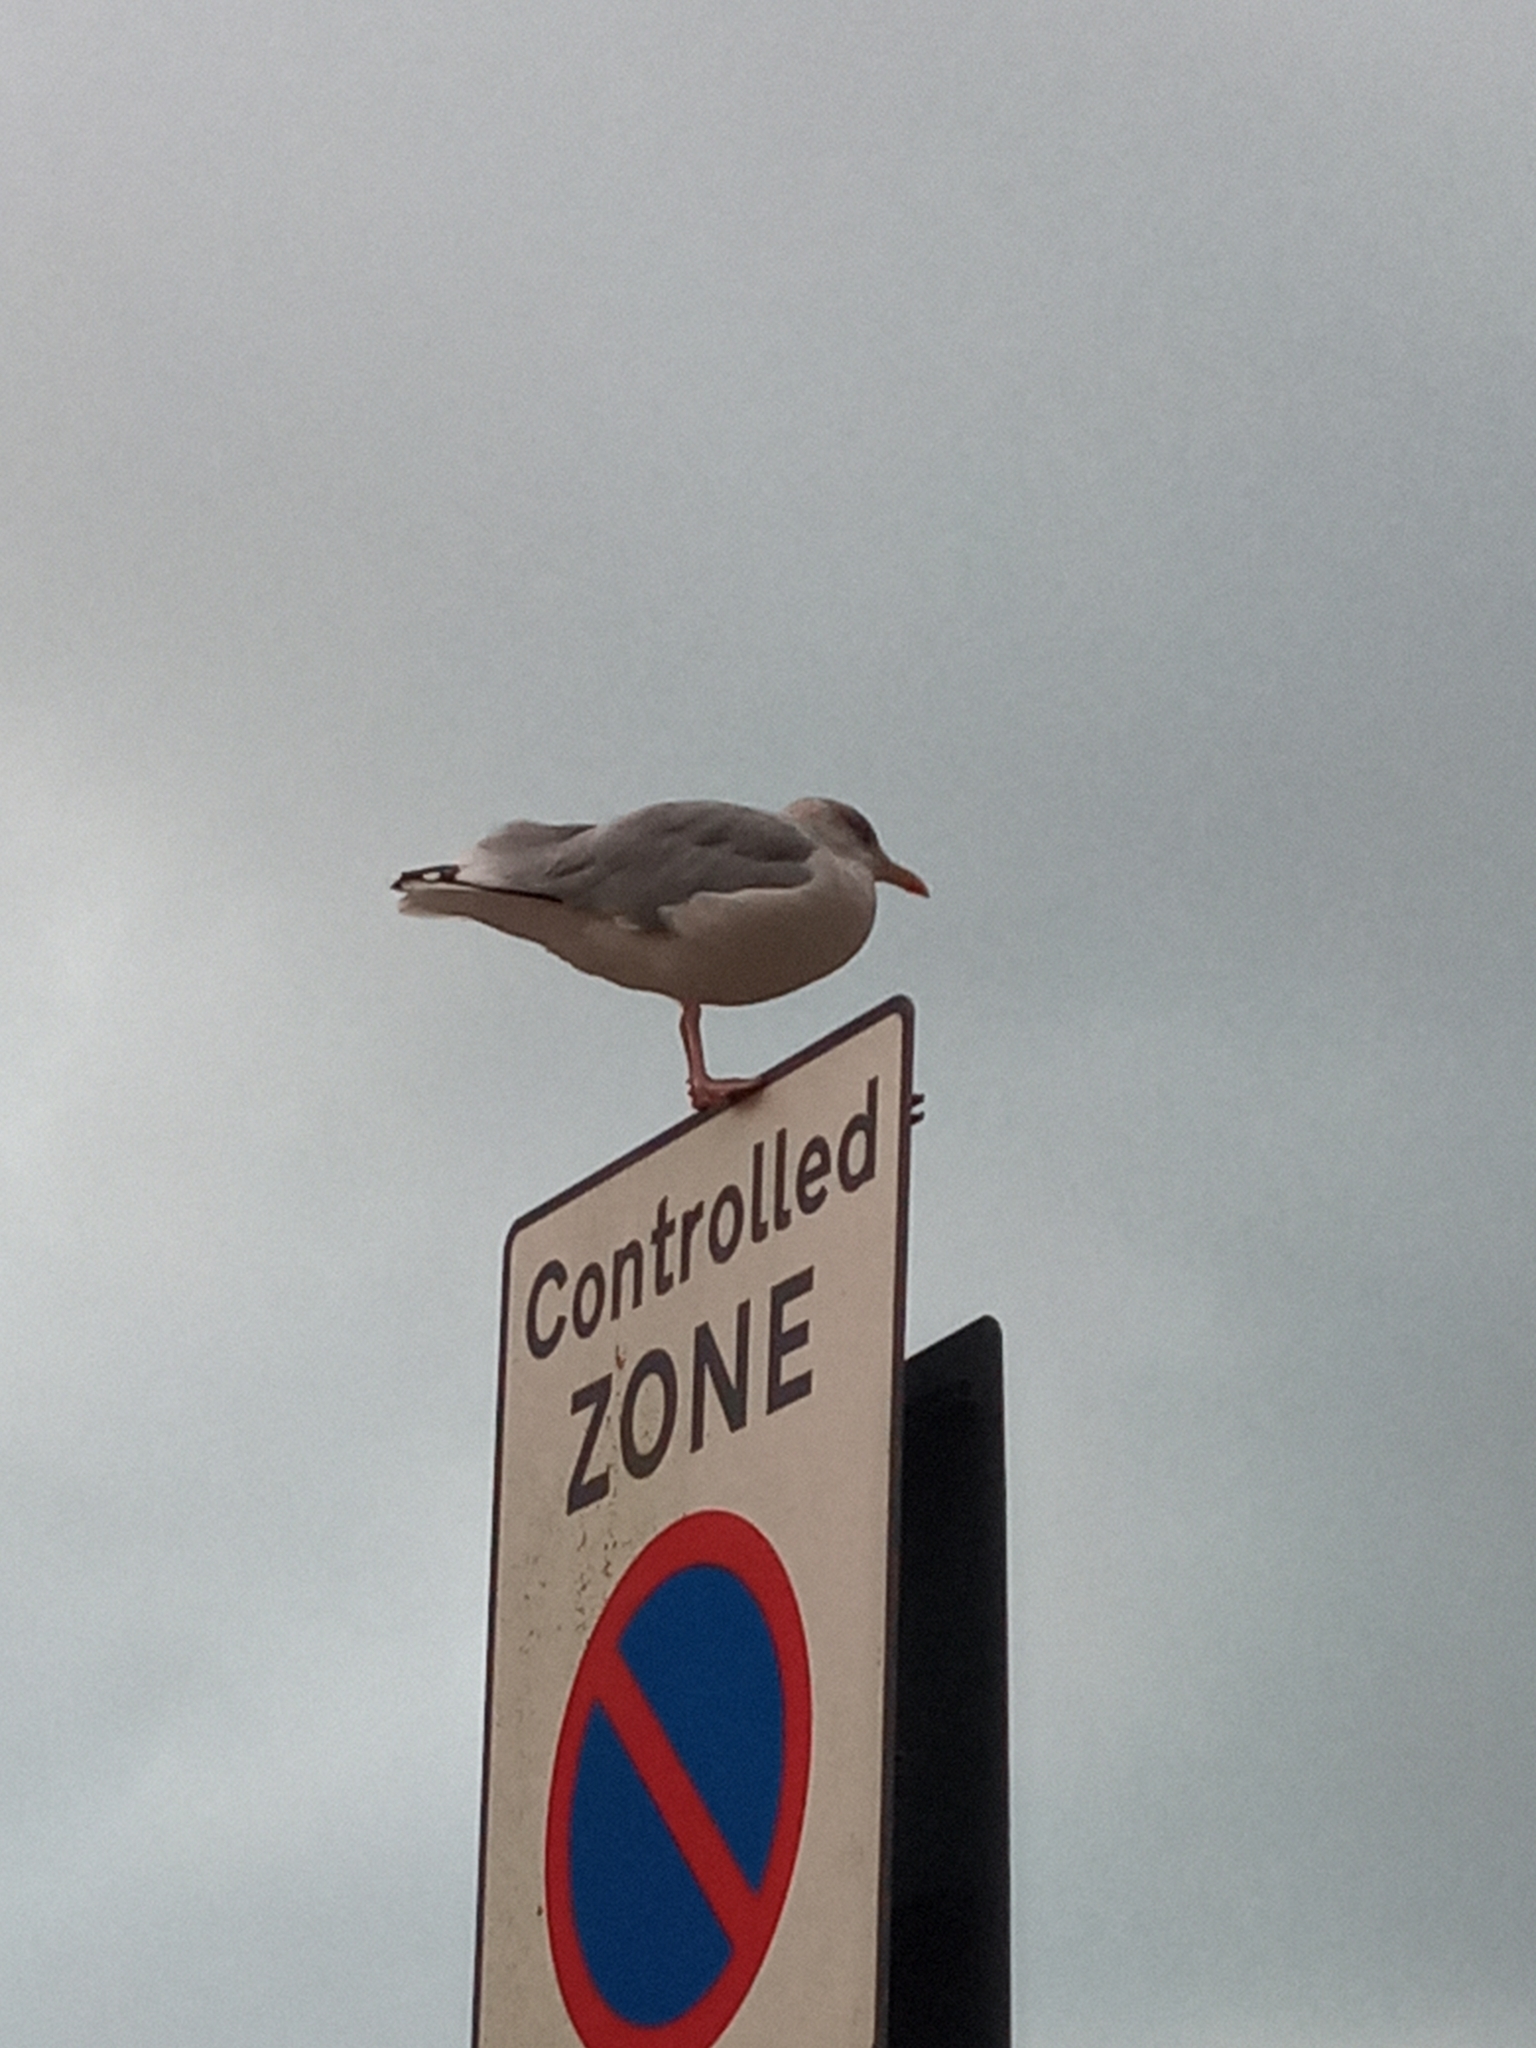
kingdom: Animalia
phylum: Chordata
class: Aves
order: Charadriiformes
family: Laridae
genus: Larus
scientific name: Larus argentatus
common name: Herring gull
